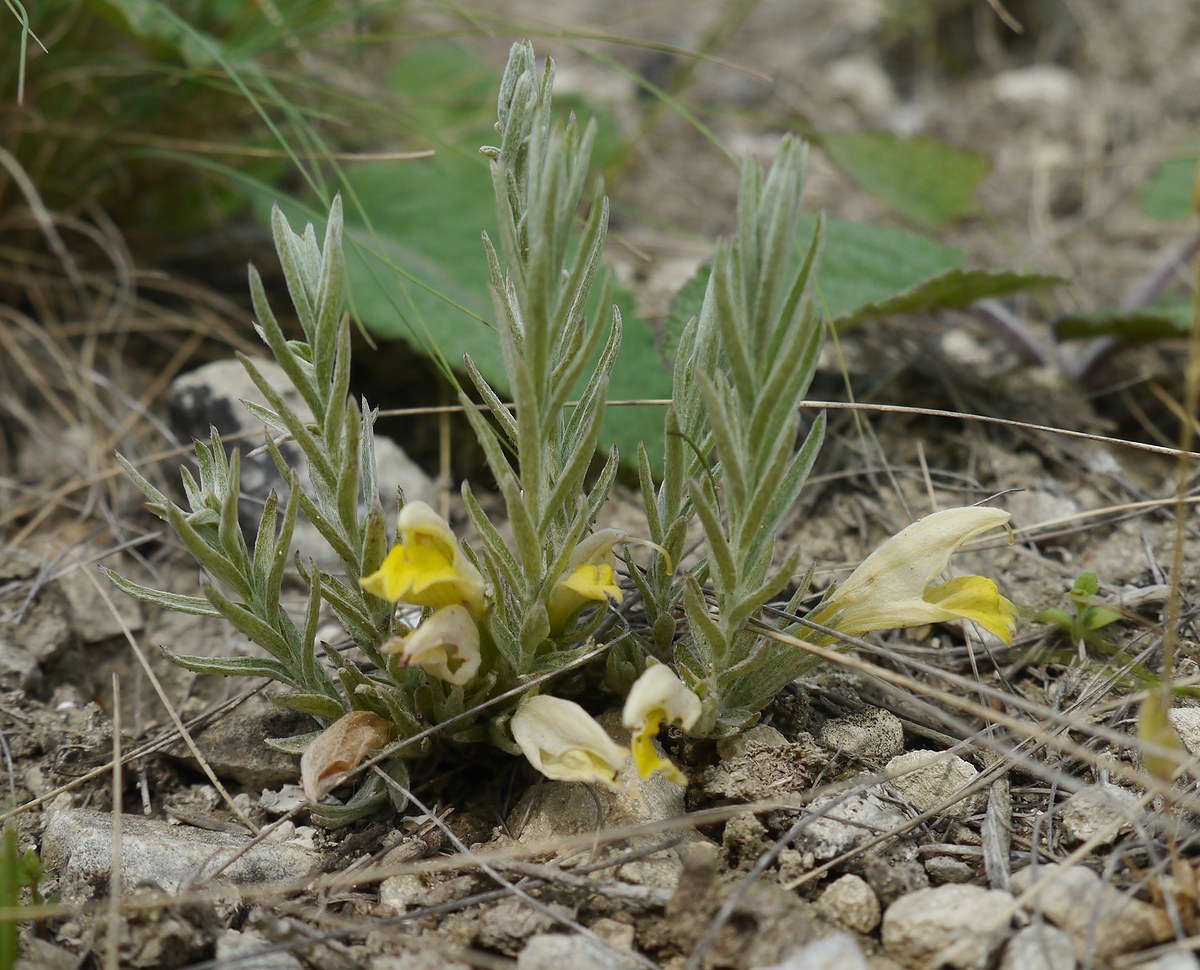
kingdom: Plantae
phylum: Tracheophyta
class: Magnoliopsida
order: Lamiales
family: Orobanchaceae
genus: Cymbaria
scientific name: Cymbaria borysthenica
